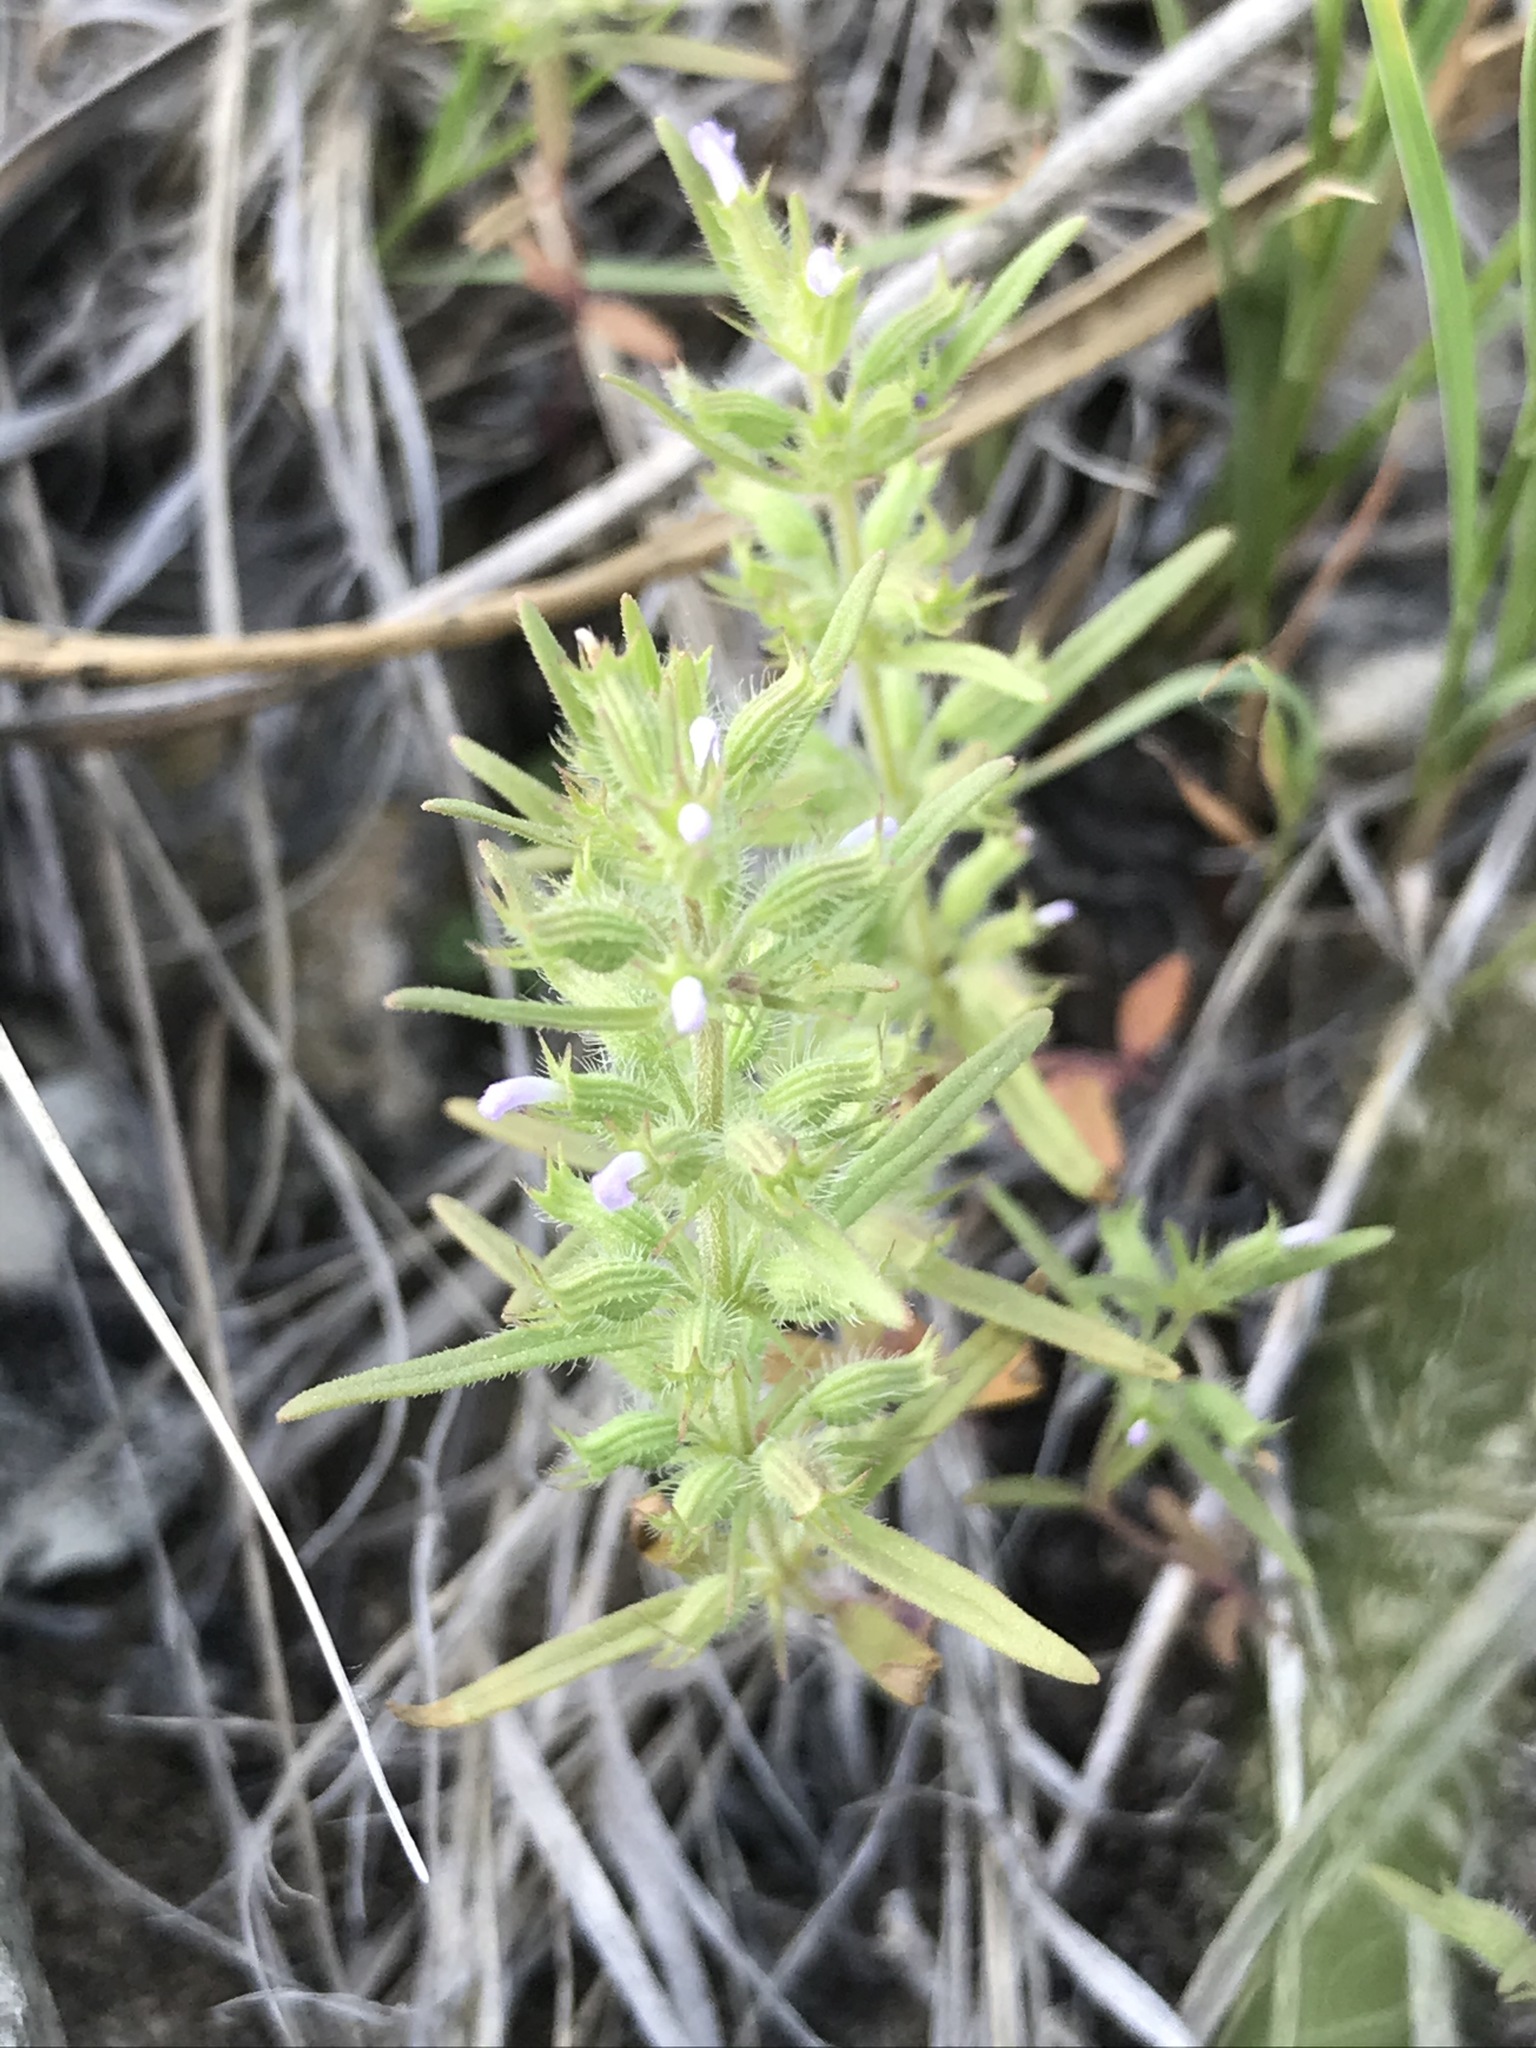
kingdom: Plantae
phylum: Tracheophyta
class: Magnoliopsida
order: Lamiales
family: Lamiaceae
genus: Hedeoma
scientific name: Hedeoma hispida
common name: Mock pennyroyal
